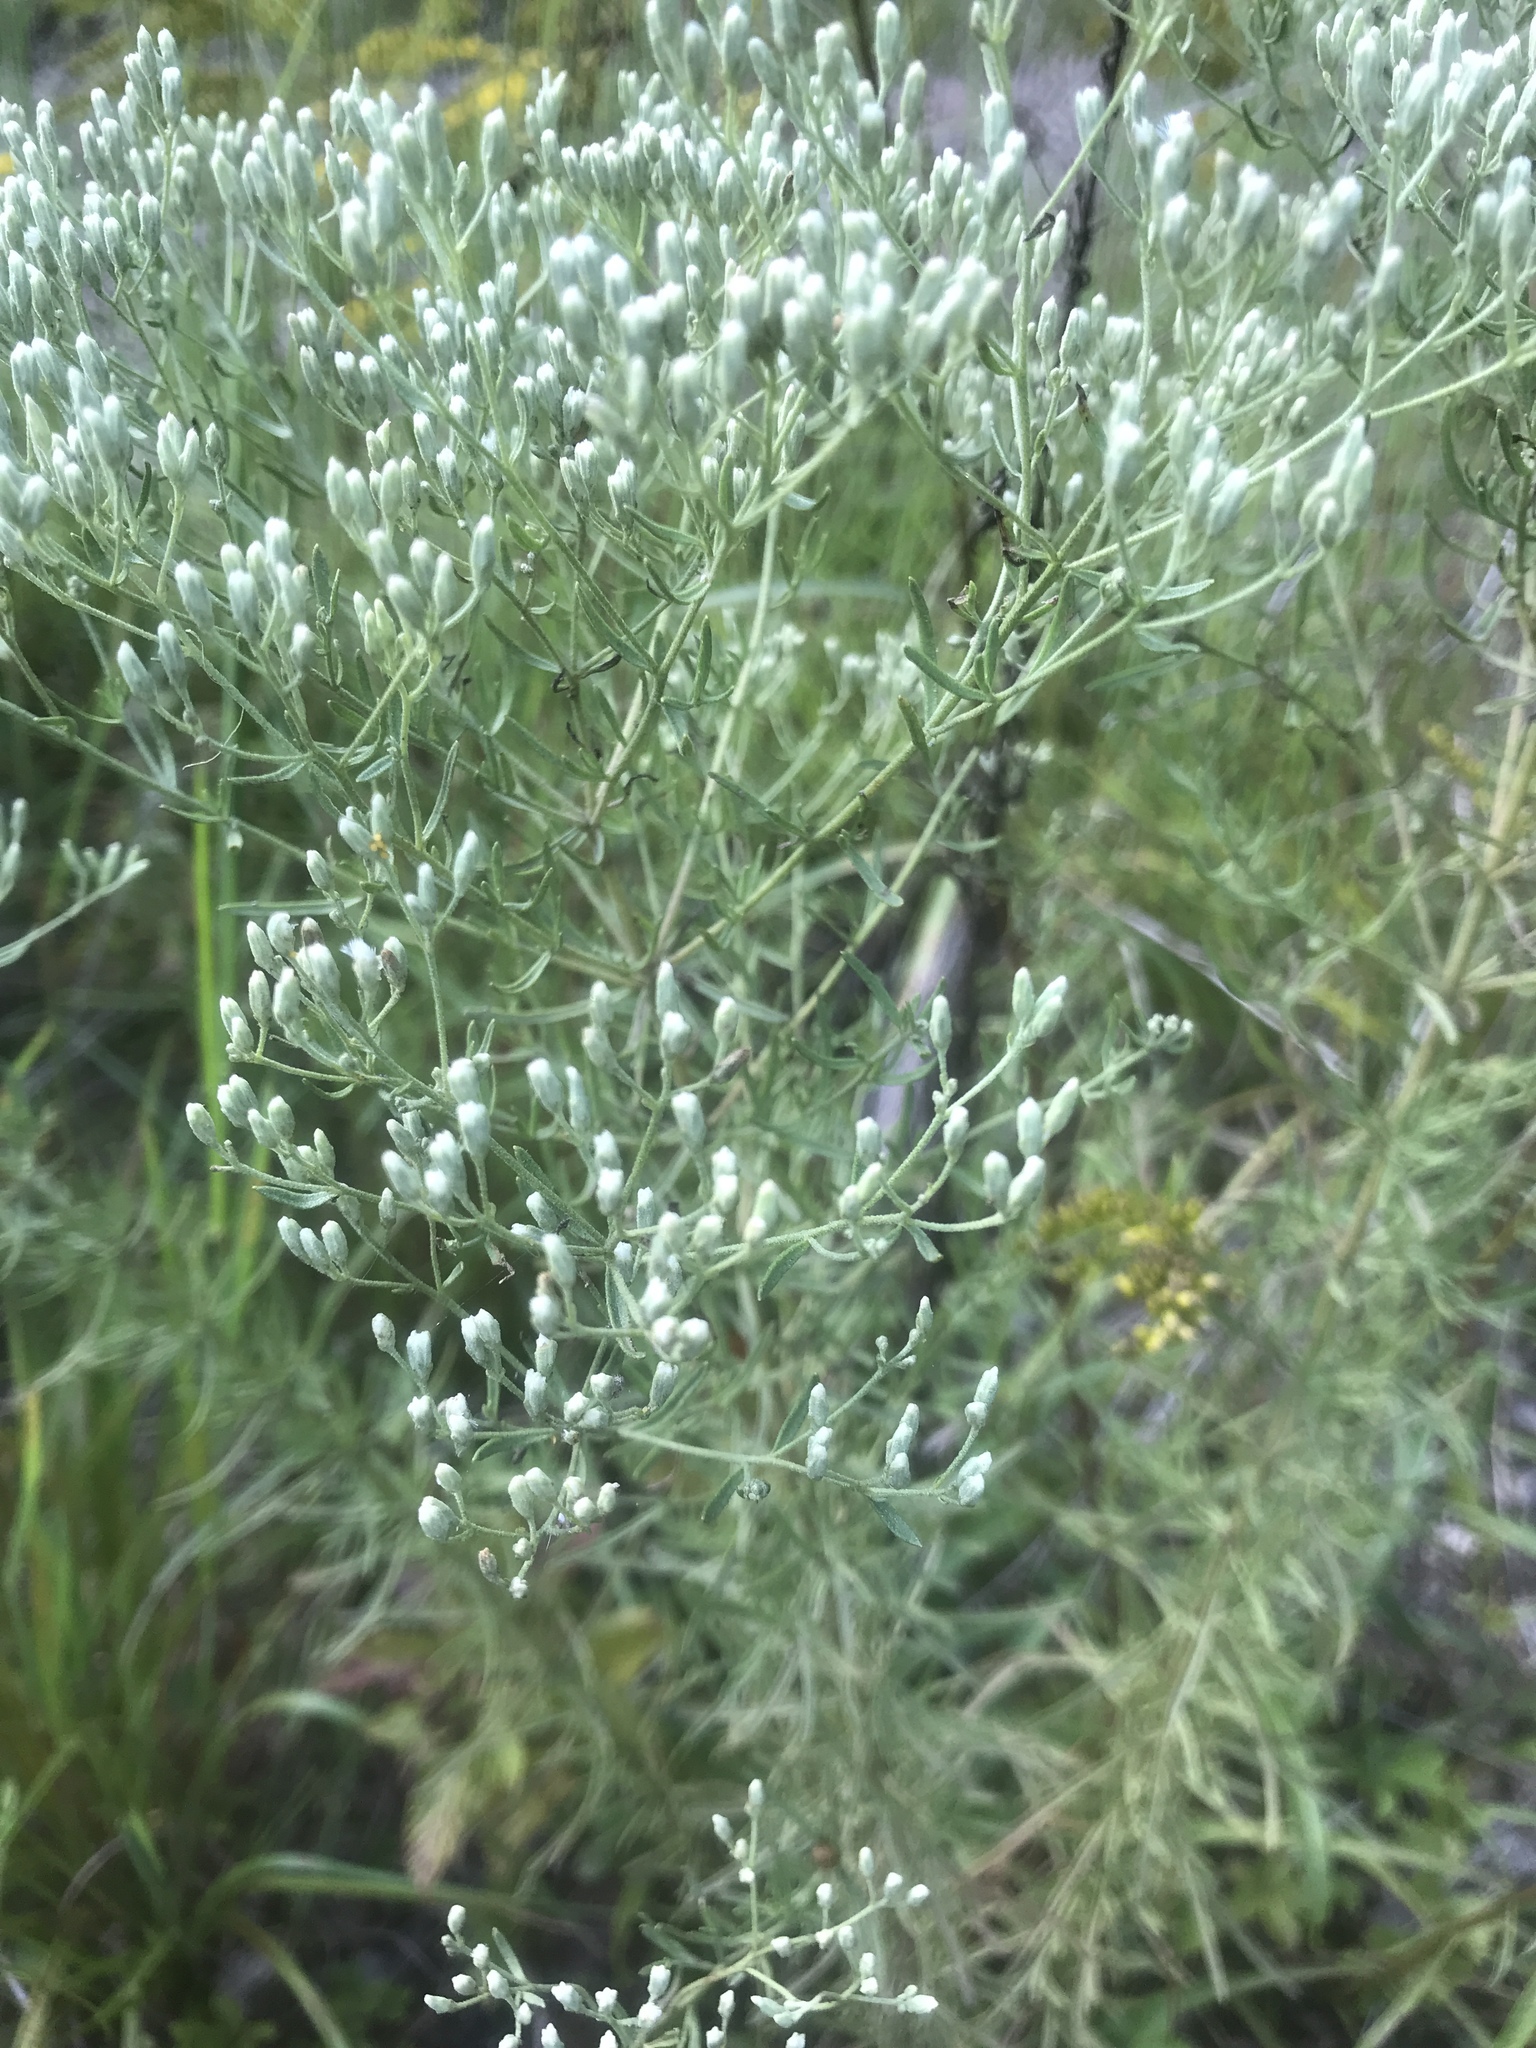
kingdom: Plantae
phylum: Tracheophyta
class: Magnoliopsida
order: Asterales
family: Asteraceae
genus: Eupatorium
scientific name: Eupatorium hyssopifolium
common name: Hyssop-leaf thoroughwort
